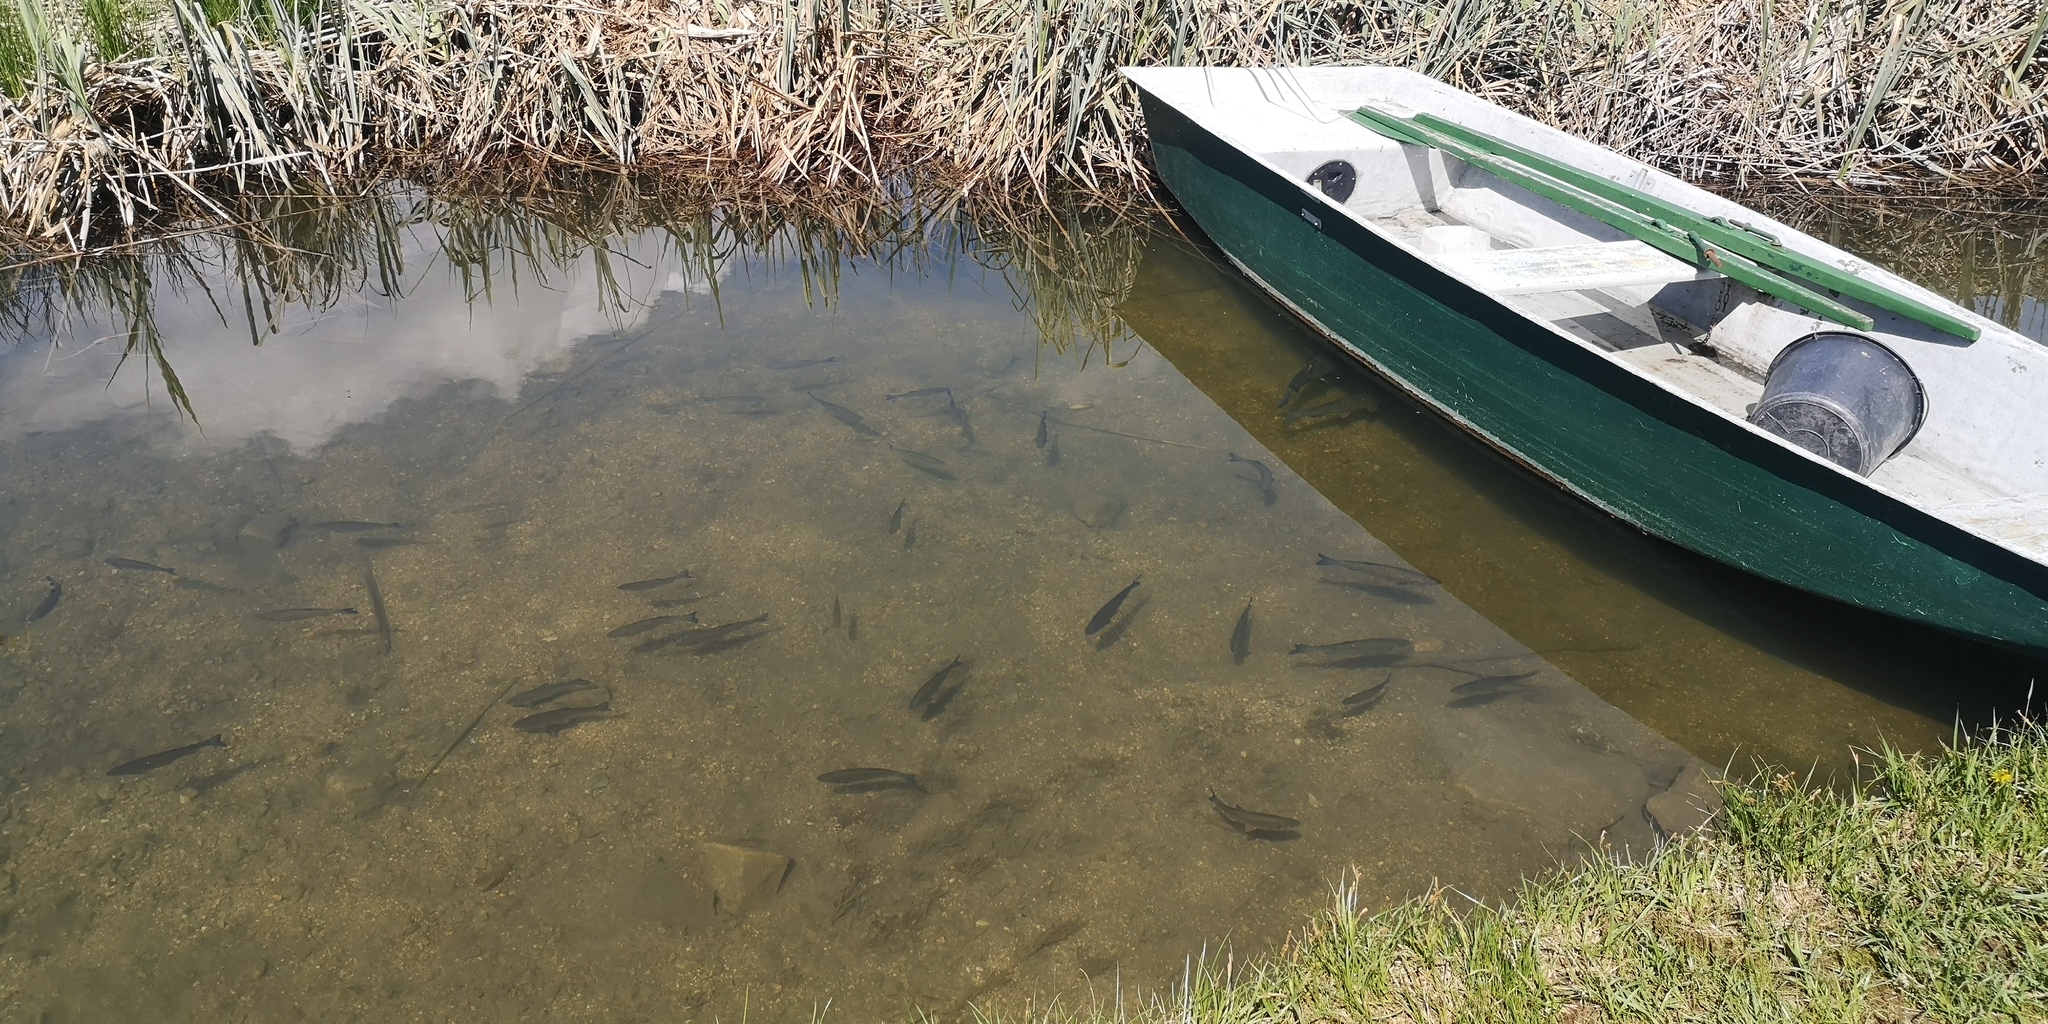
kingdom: Animalia
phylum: Chordata
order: Cypriniformes
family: Cyprinidae
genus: Squalius
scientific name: Squalius cephalus
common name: Chub
